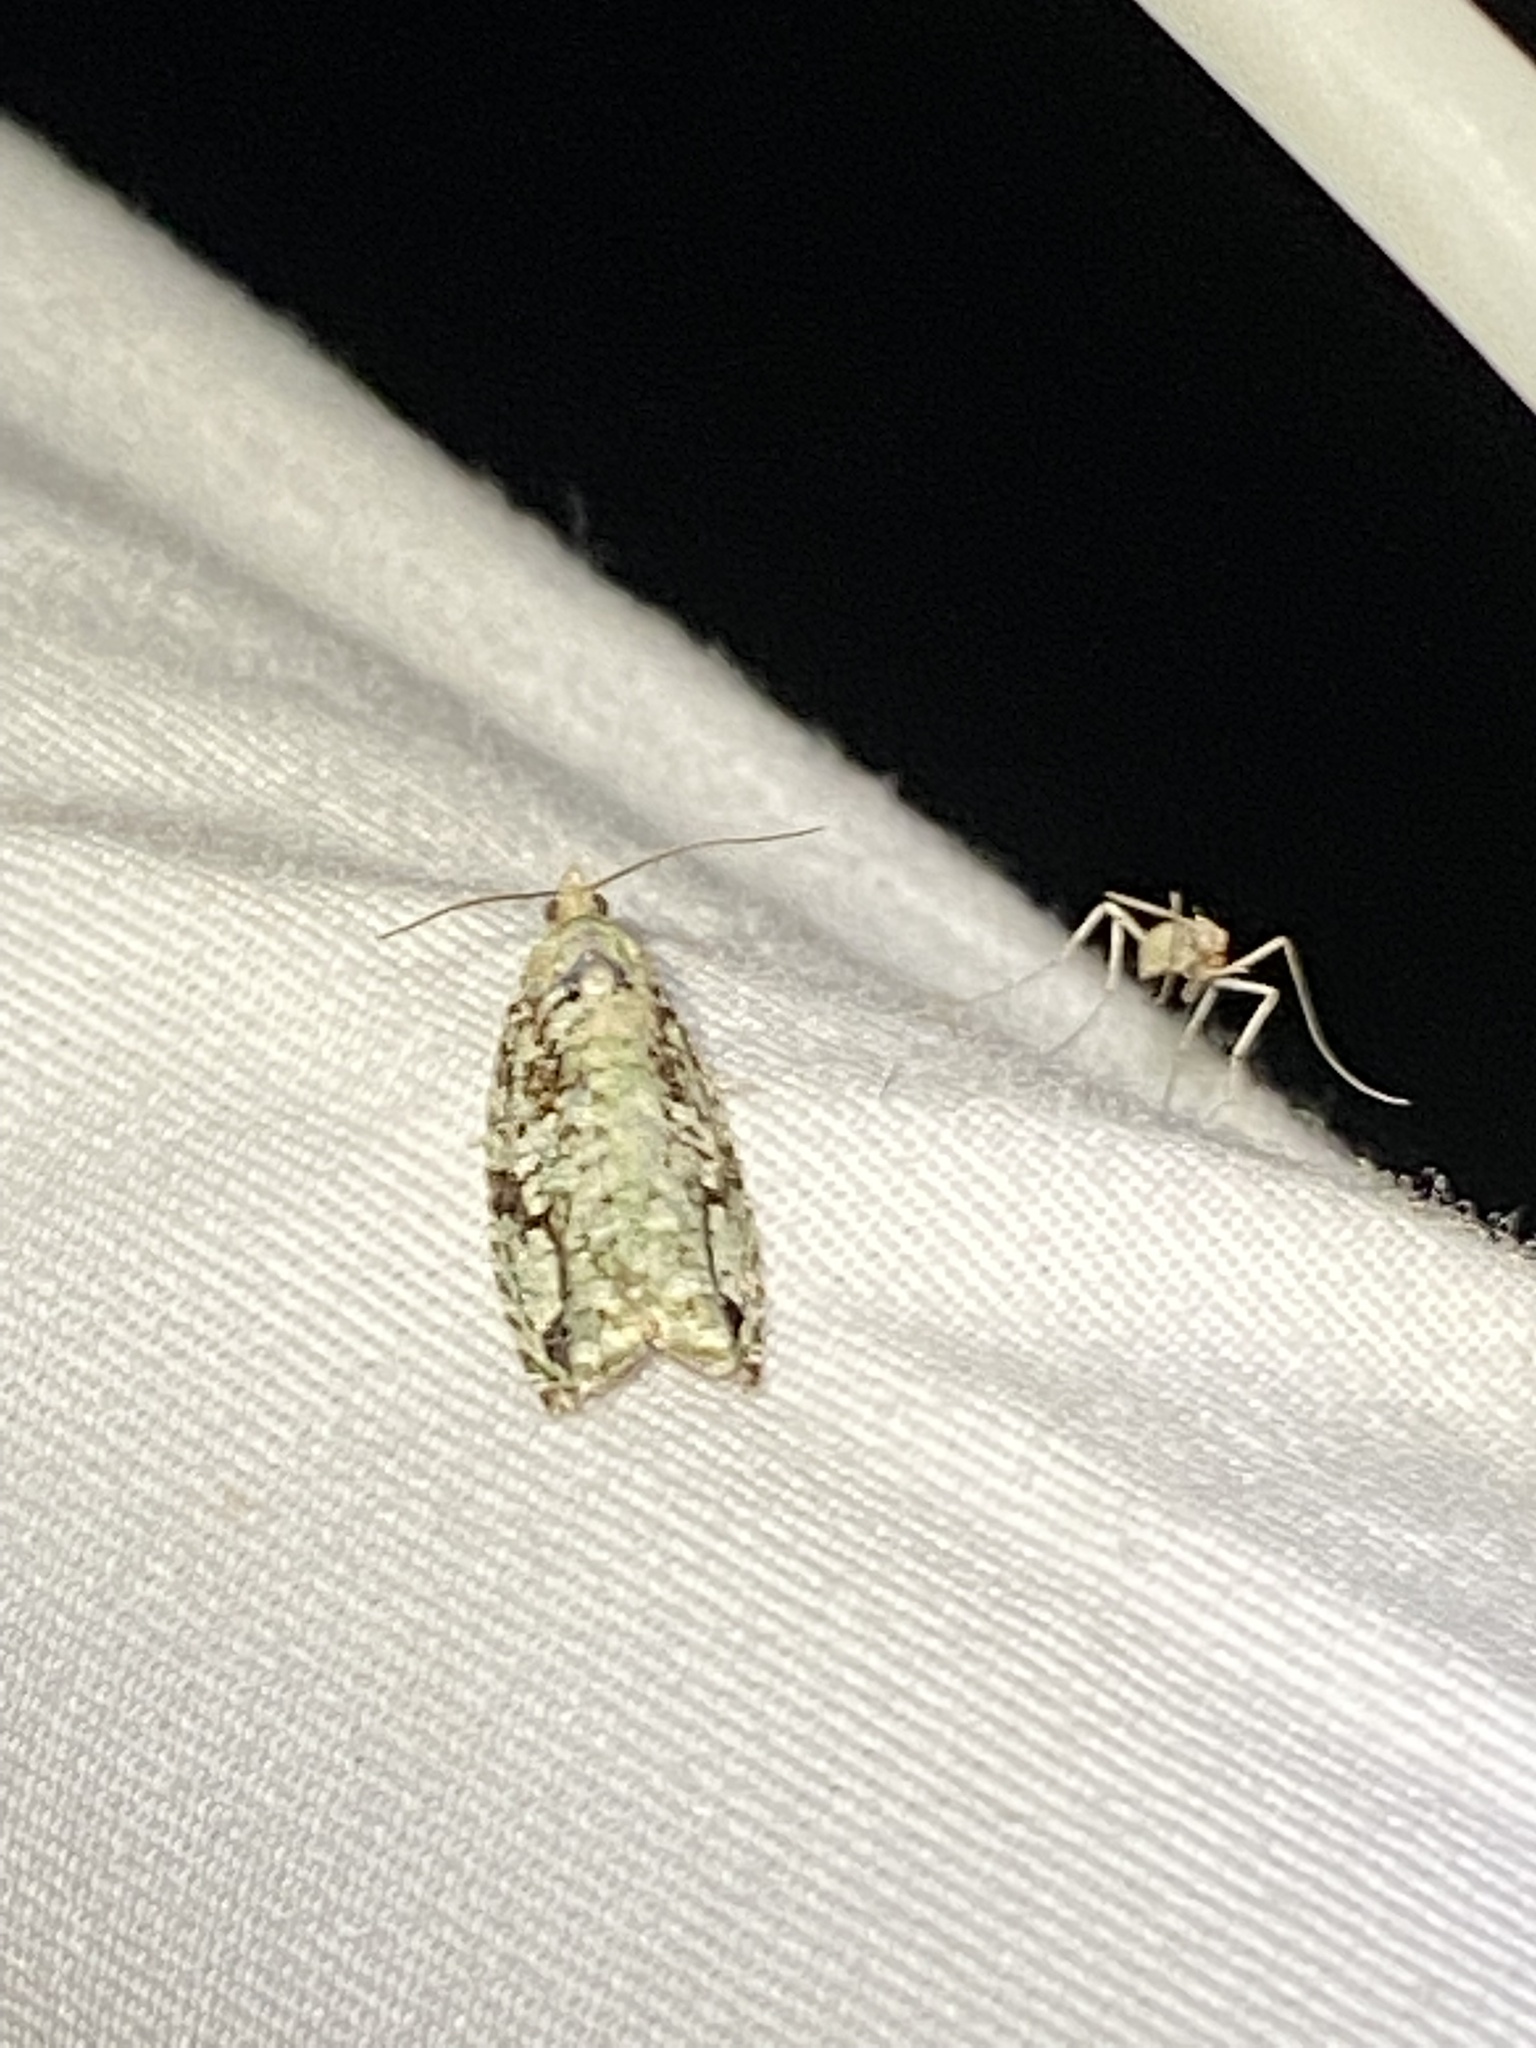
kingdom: Animalia
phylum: Arthropoda
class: Insecta
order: Lepidoptera
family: Tortricidae
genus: Proteoteras
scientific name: Proteoteras moffatiana
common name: Maple bud borer moth
